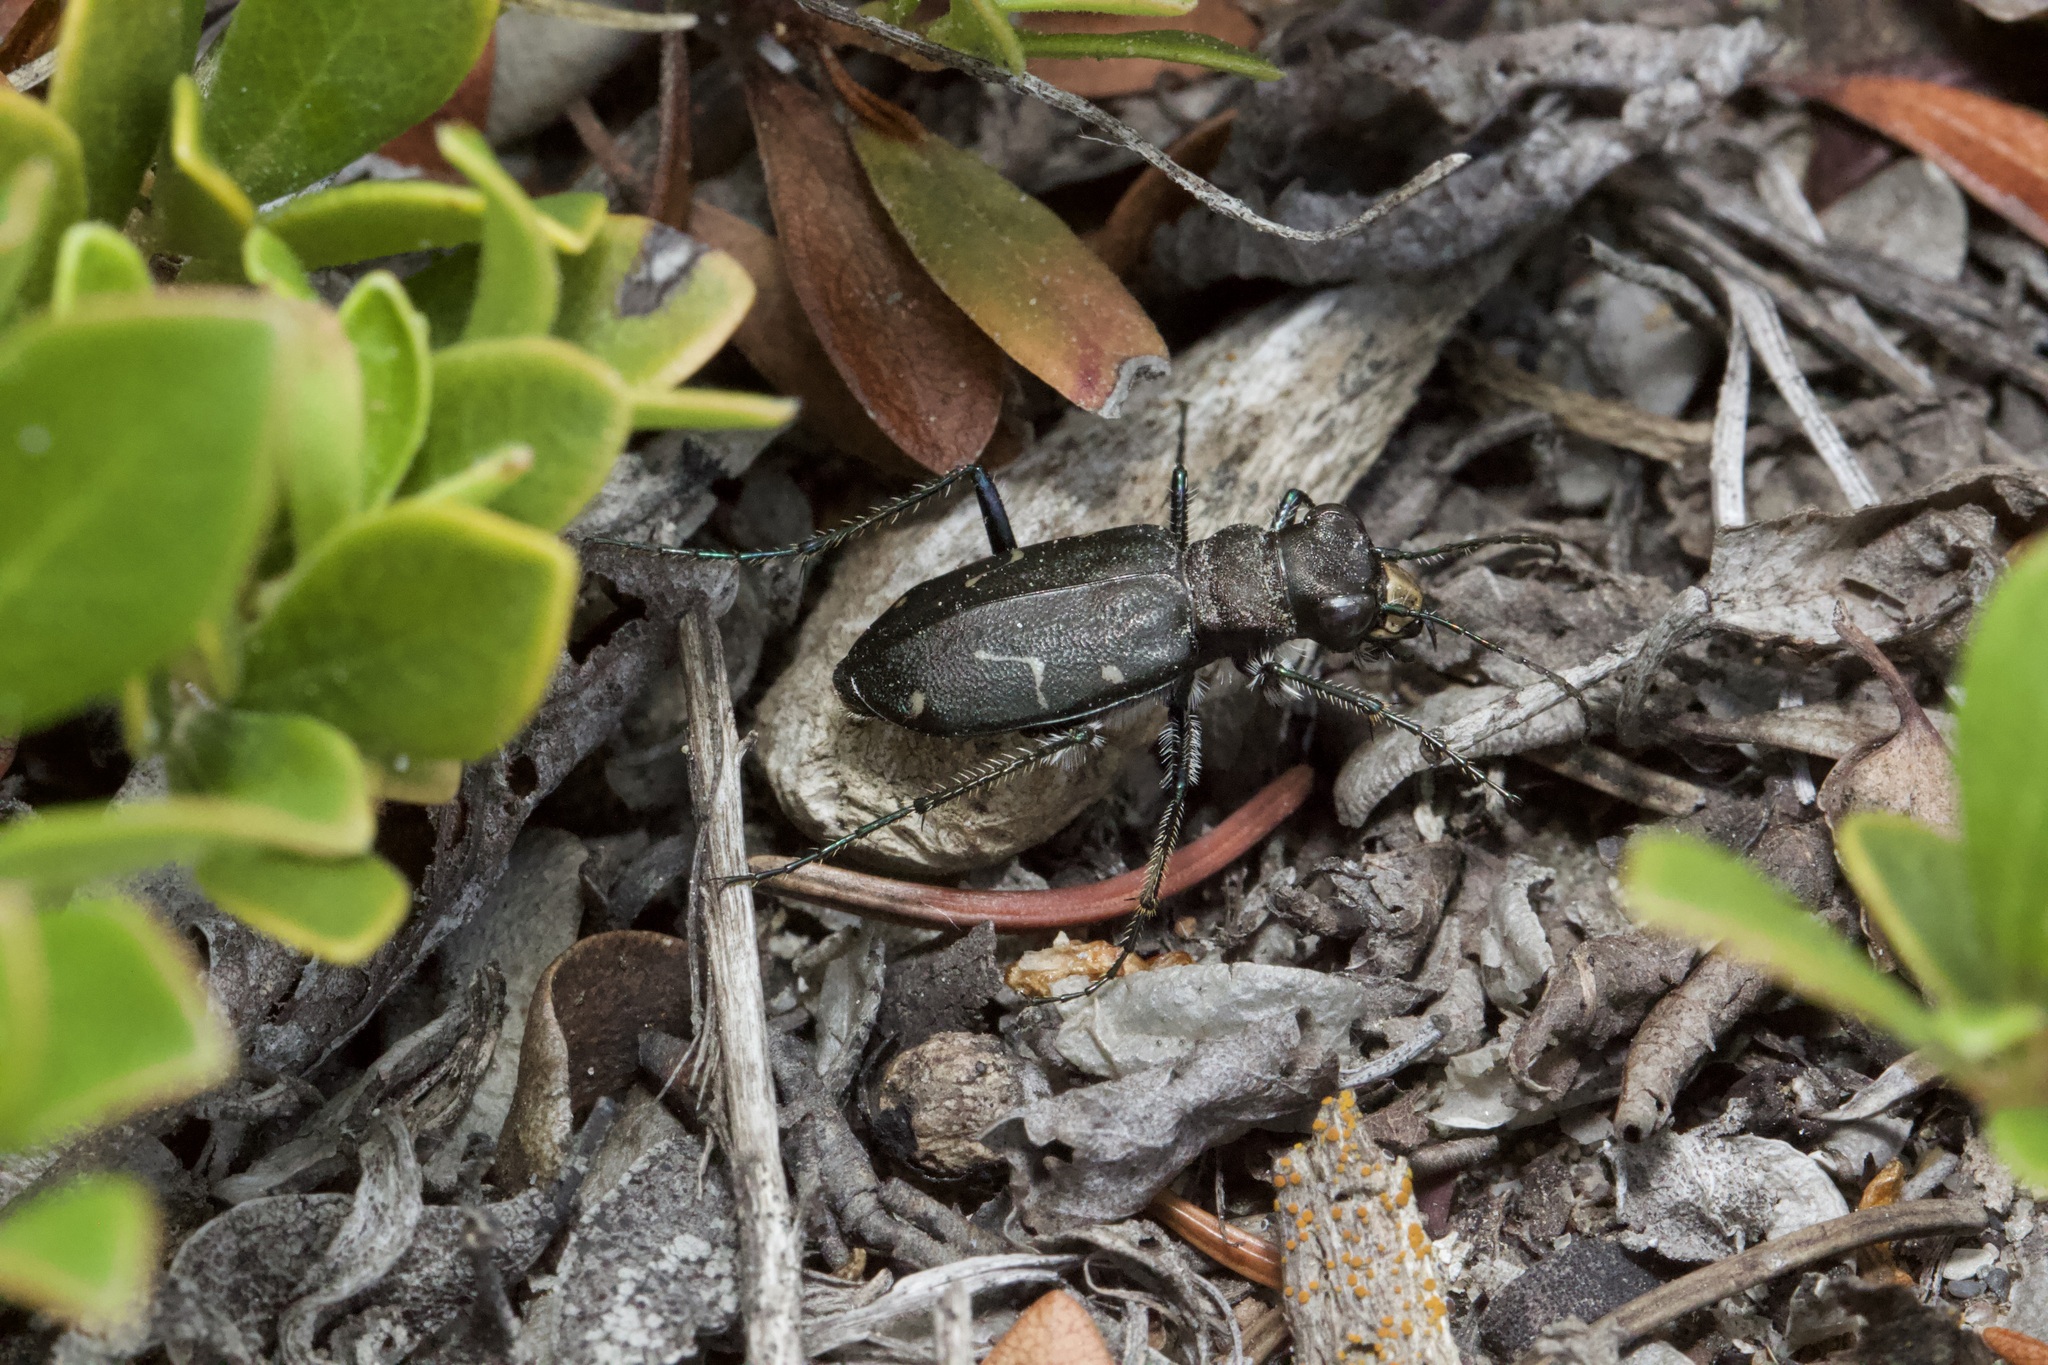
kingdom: Animalia
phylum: Arthropoda
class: Insecta
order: Coleoptera
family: Carabidae
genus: Cicindela
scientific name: Cicindela longilabris
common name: Boreal long-lipped tiger beetle
